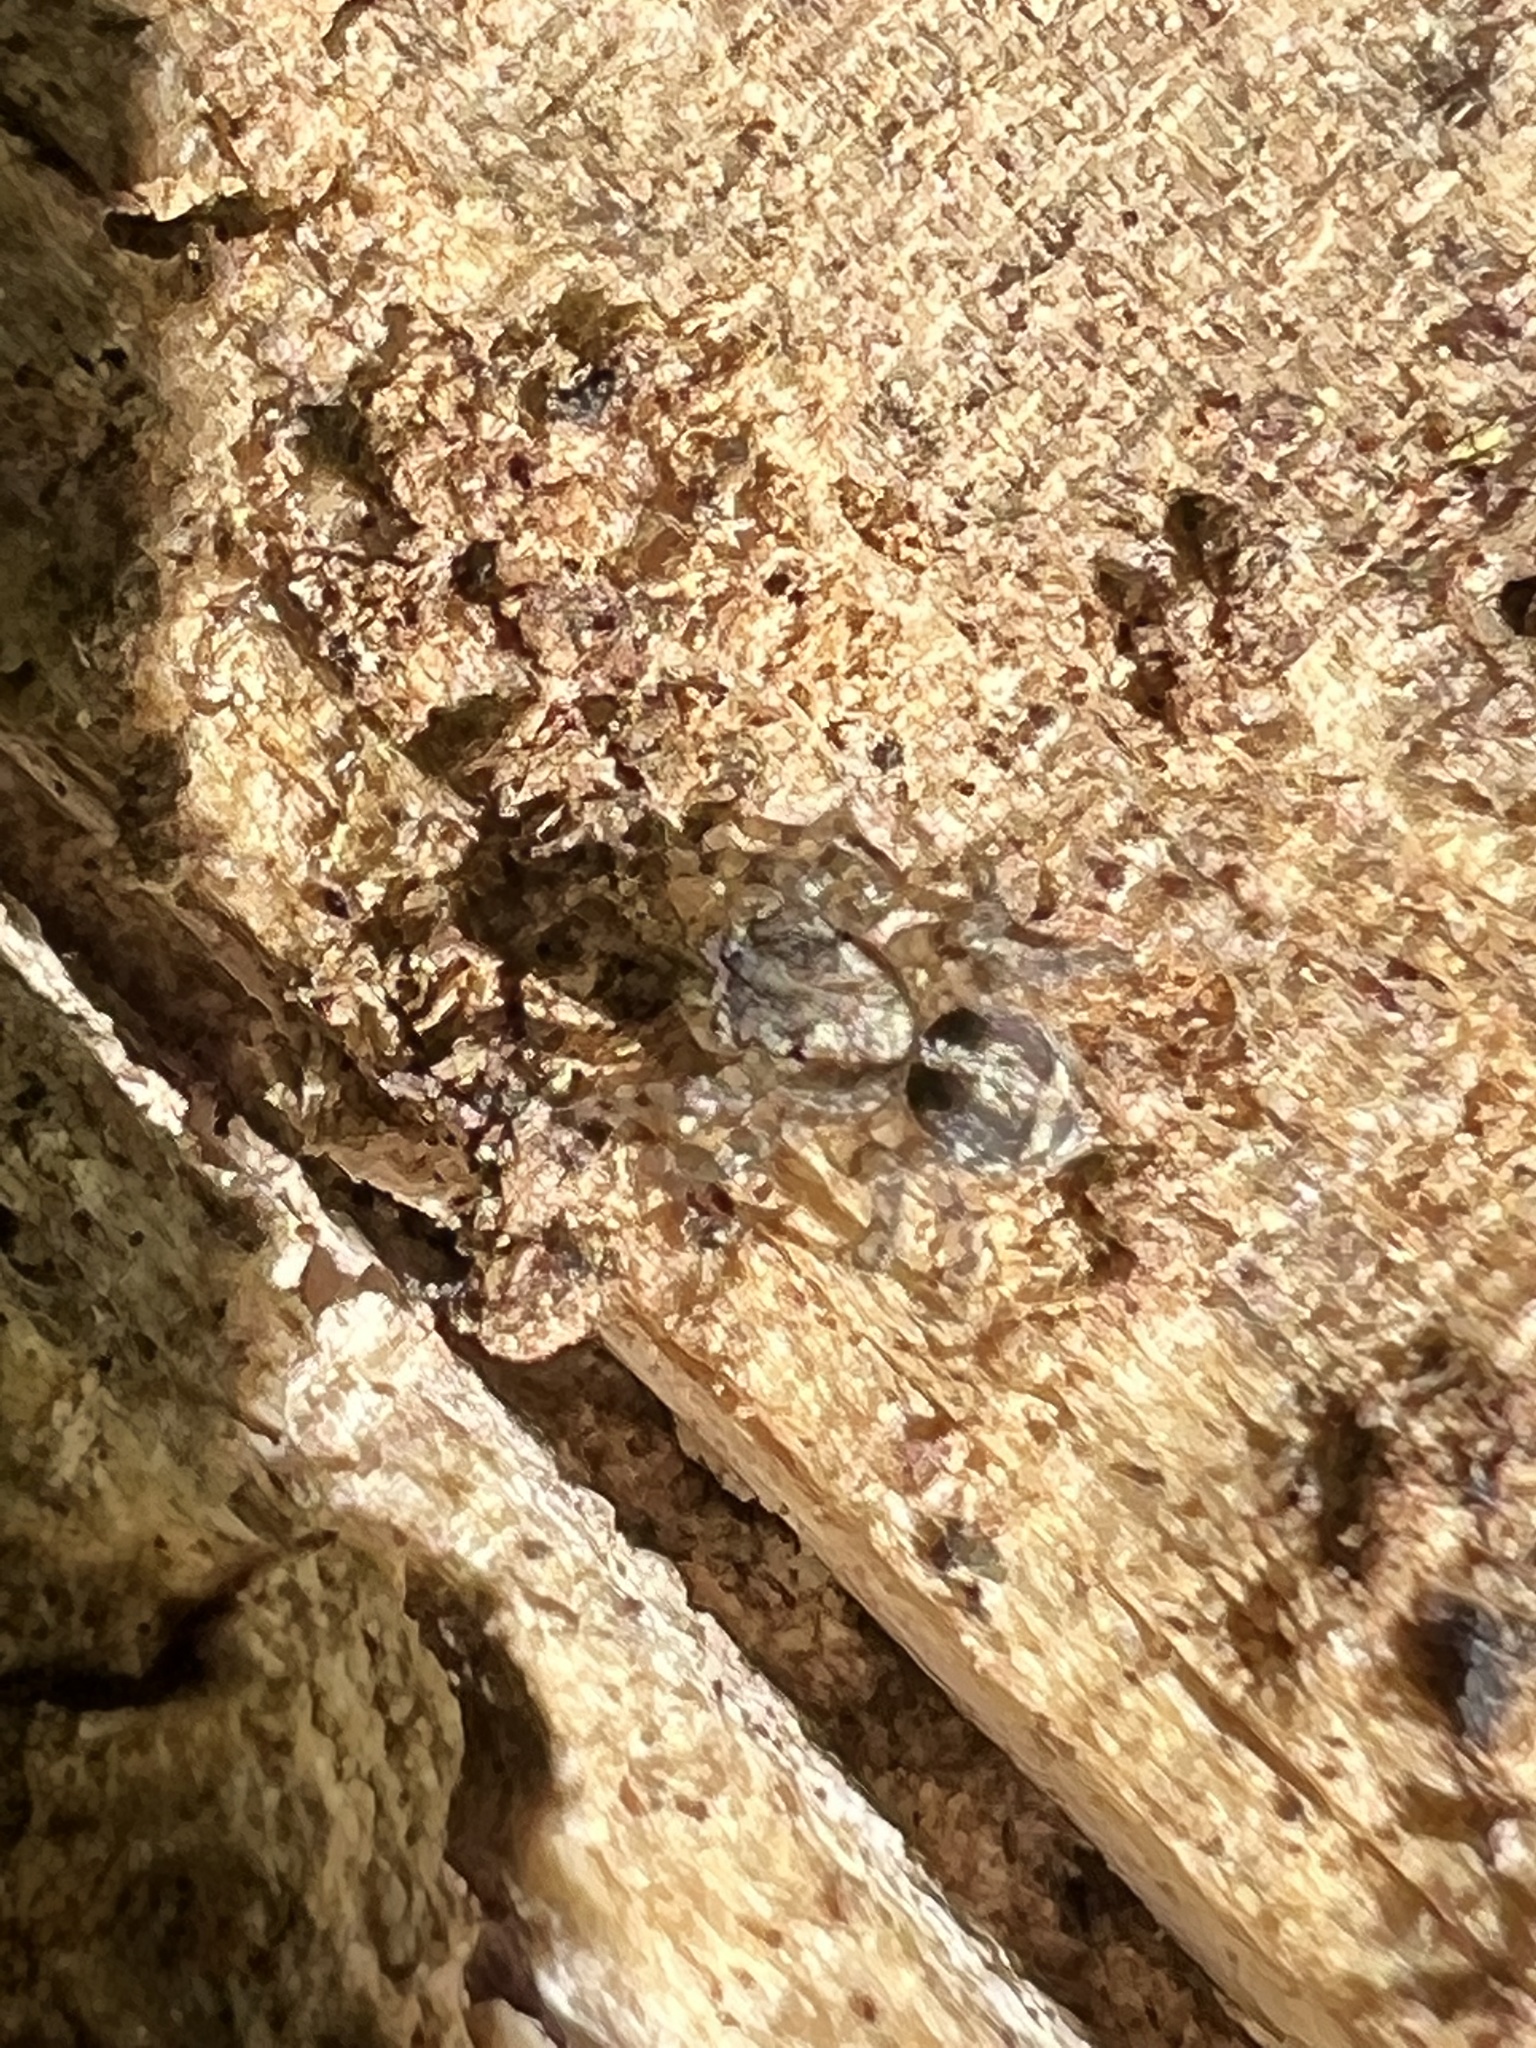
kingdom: Animalia
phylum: Arthropoda
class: Arachnida
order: Araneae
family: Salticidae
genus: Naphrys
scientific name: Naphrys pulex
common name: Flea jumping spider
